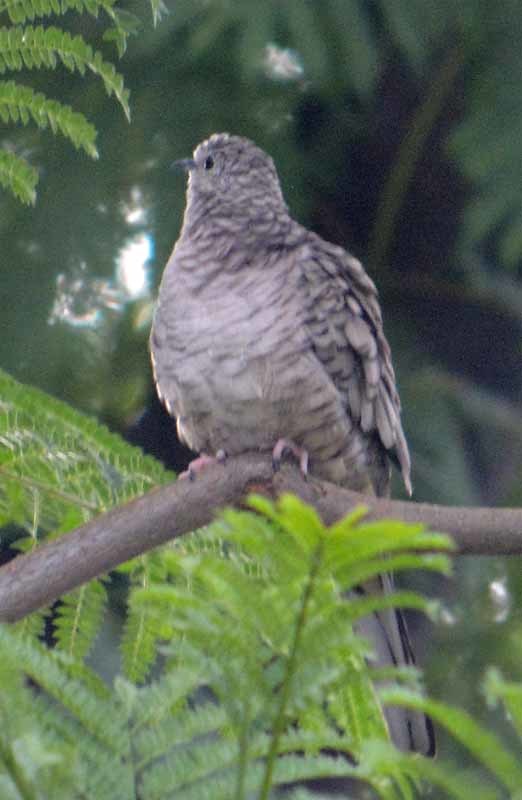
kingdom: Animalia
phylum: Chordata
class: Aves
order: Columbiformes
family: Columbidae
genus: Columbina
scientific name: Columbina inca
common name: Inca dove
